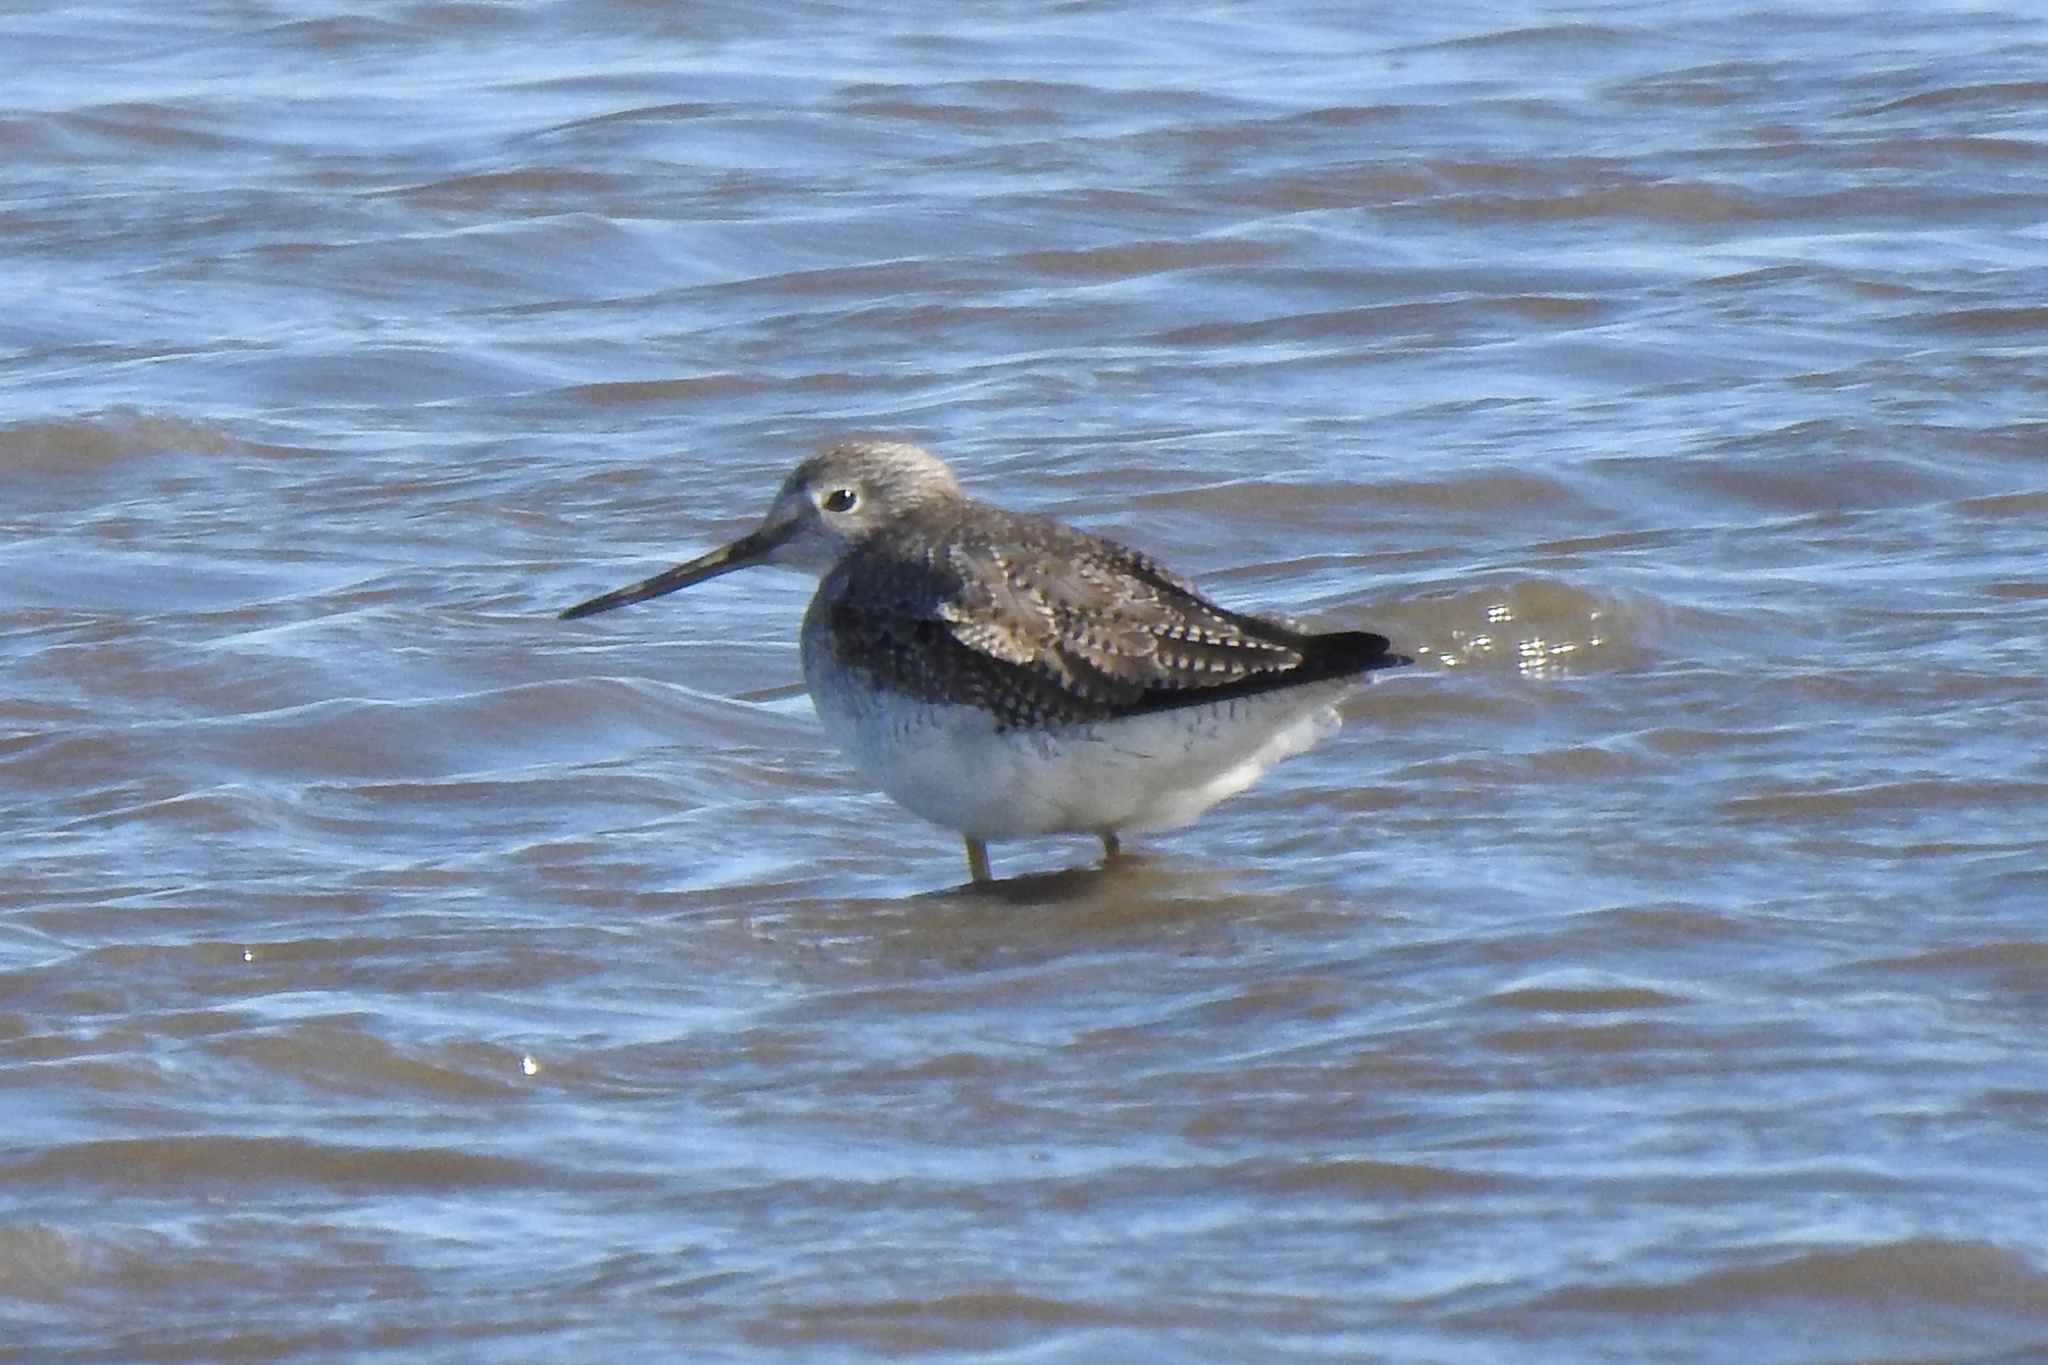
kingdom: Animalia
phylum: Chordata
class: Aves
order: Charadriiformes
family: Scolopacidae
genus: Tringa
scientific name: Tringa melanoleuca
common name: Greater yellowlegs
